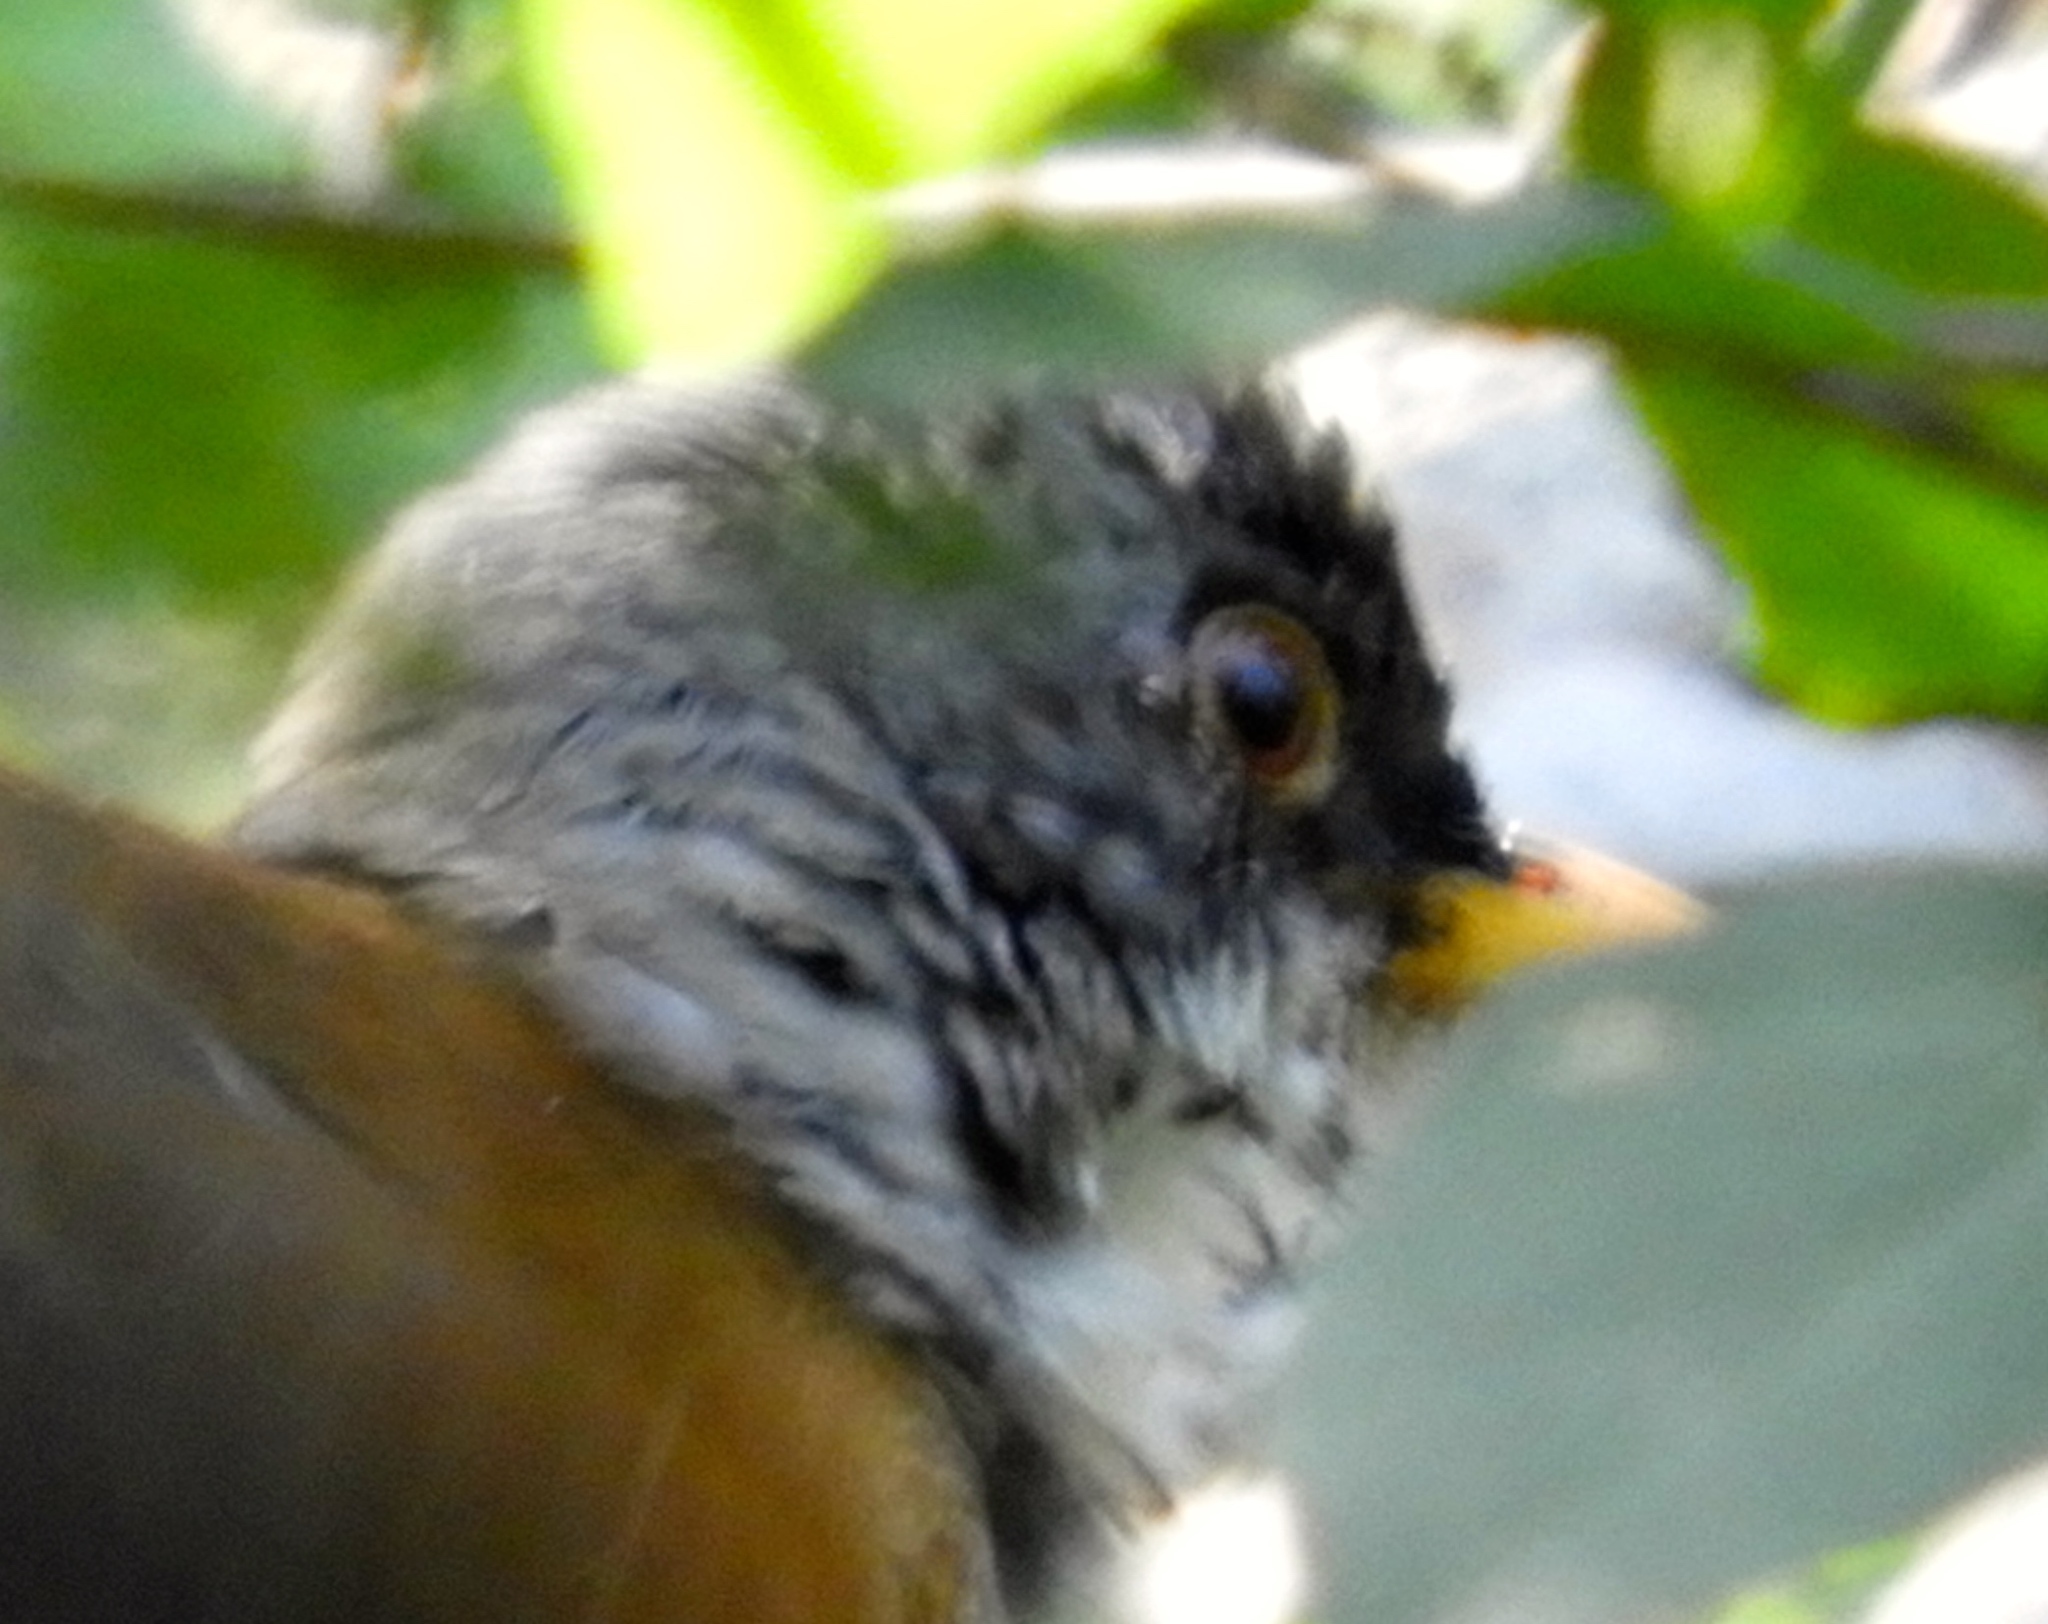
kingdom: Animalia
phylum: Chordata
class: Aves
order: Passeriformes
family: Turdidae
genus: Turdus
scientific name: Turdus rufopalliatus
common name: Rufous-backed robin
